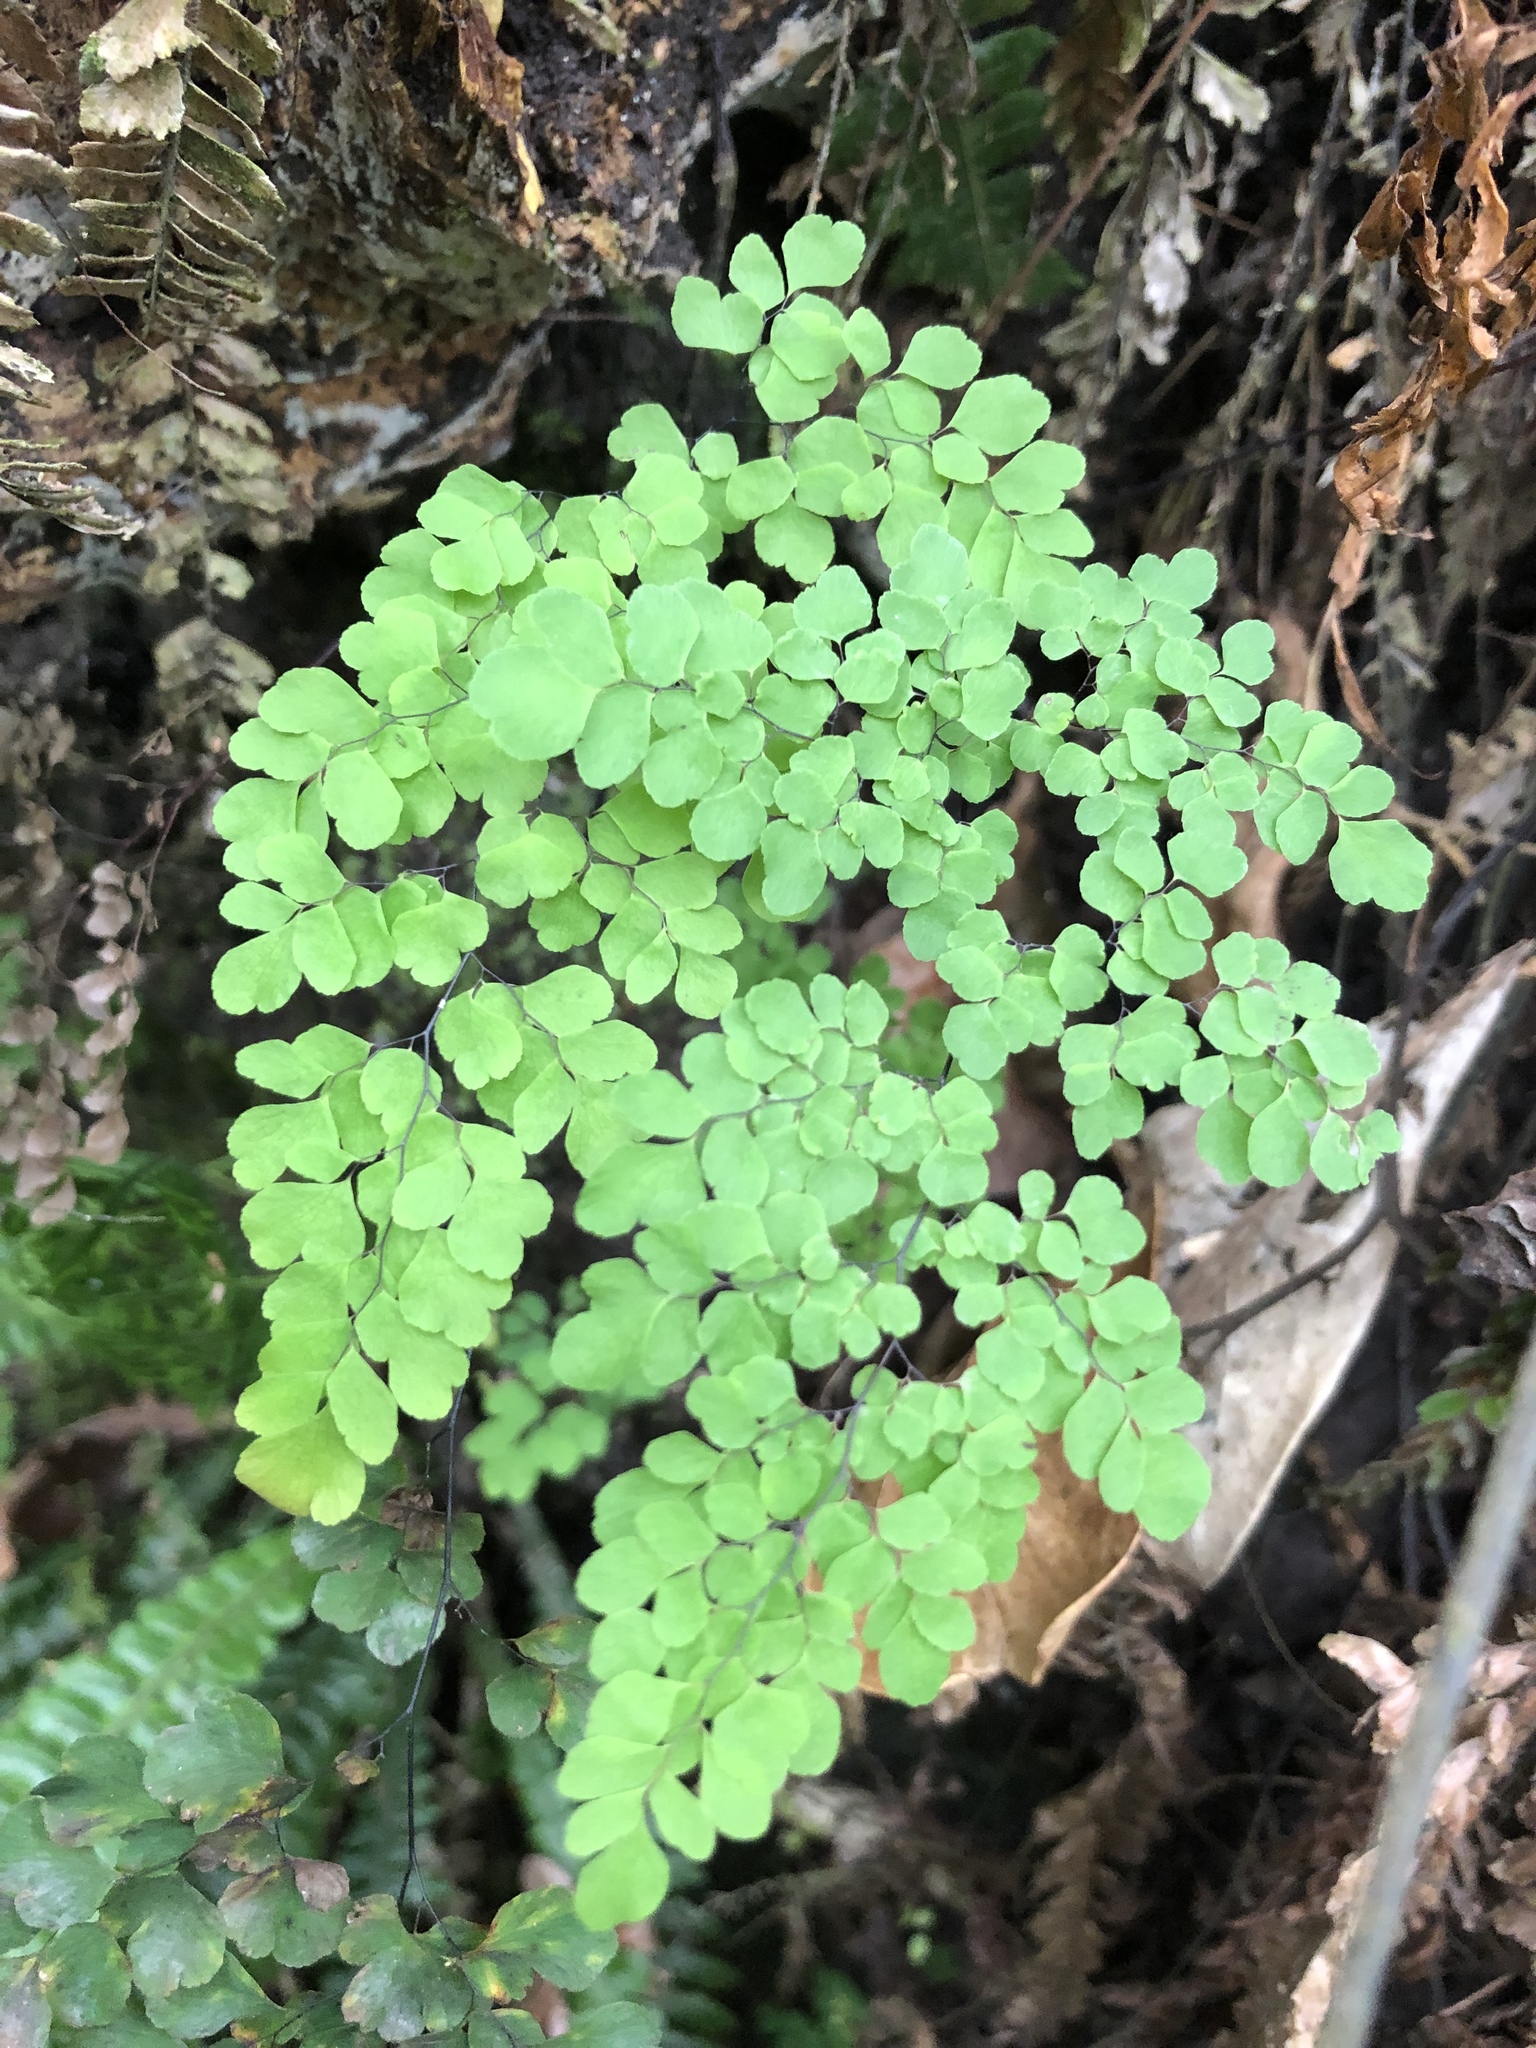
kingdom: Plantae
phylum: Tracheophyta
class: Polypodiopsida
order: Polypodiales
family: Pteridaceae
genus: Adiantum
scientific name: Adiantum raddianum
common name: Delta maidenhair fern
